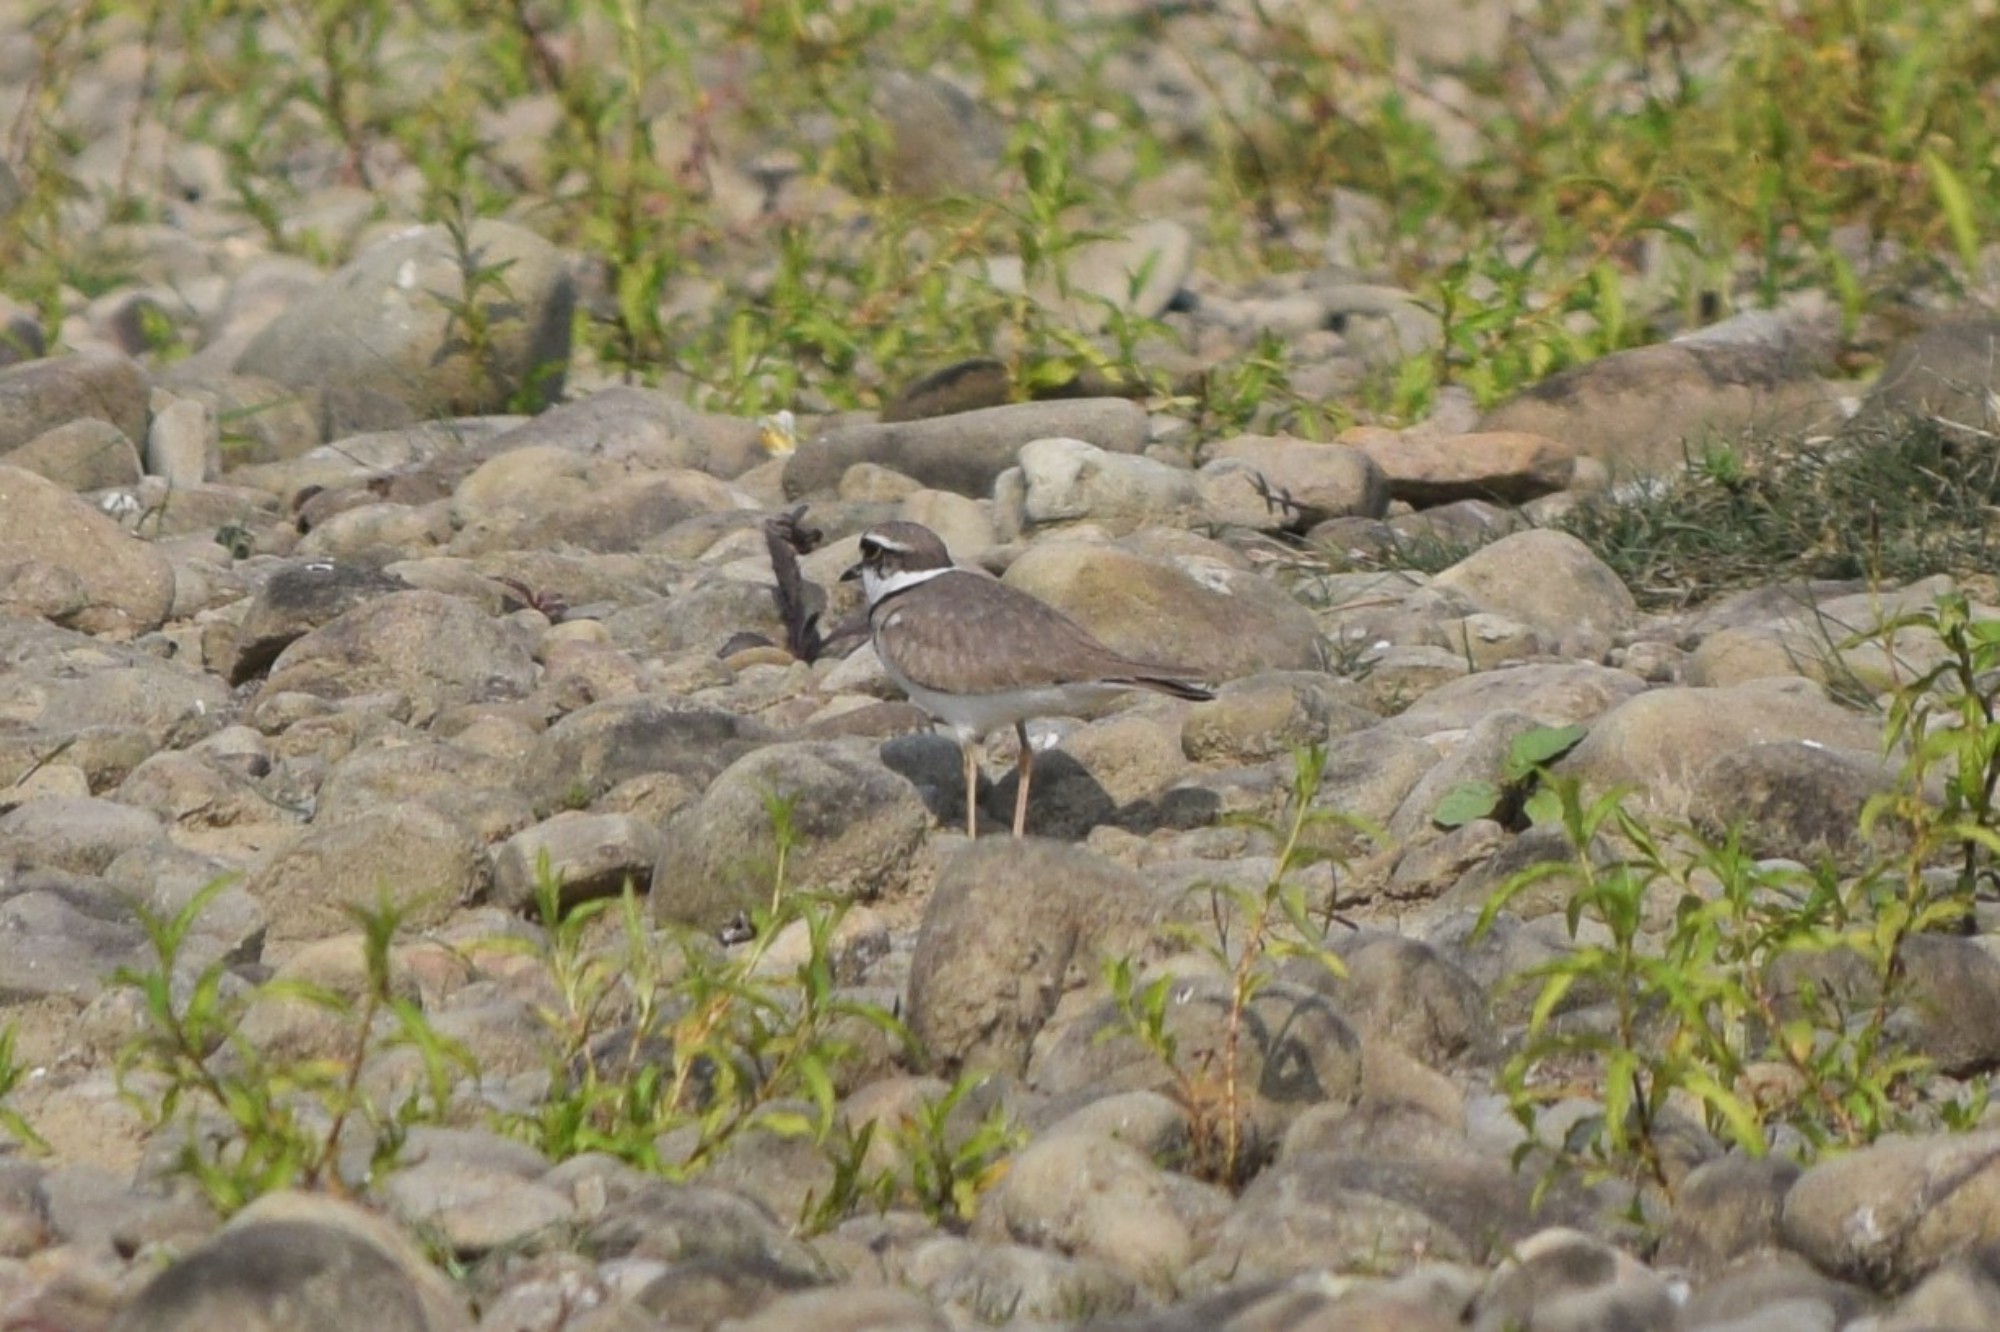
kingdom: Animalia
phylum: Chordata
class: Aves
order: Charadriiformes
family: Charadriidae
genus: Charadrius
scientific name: Charadrius placidus
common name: Long-billed plover
